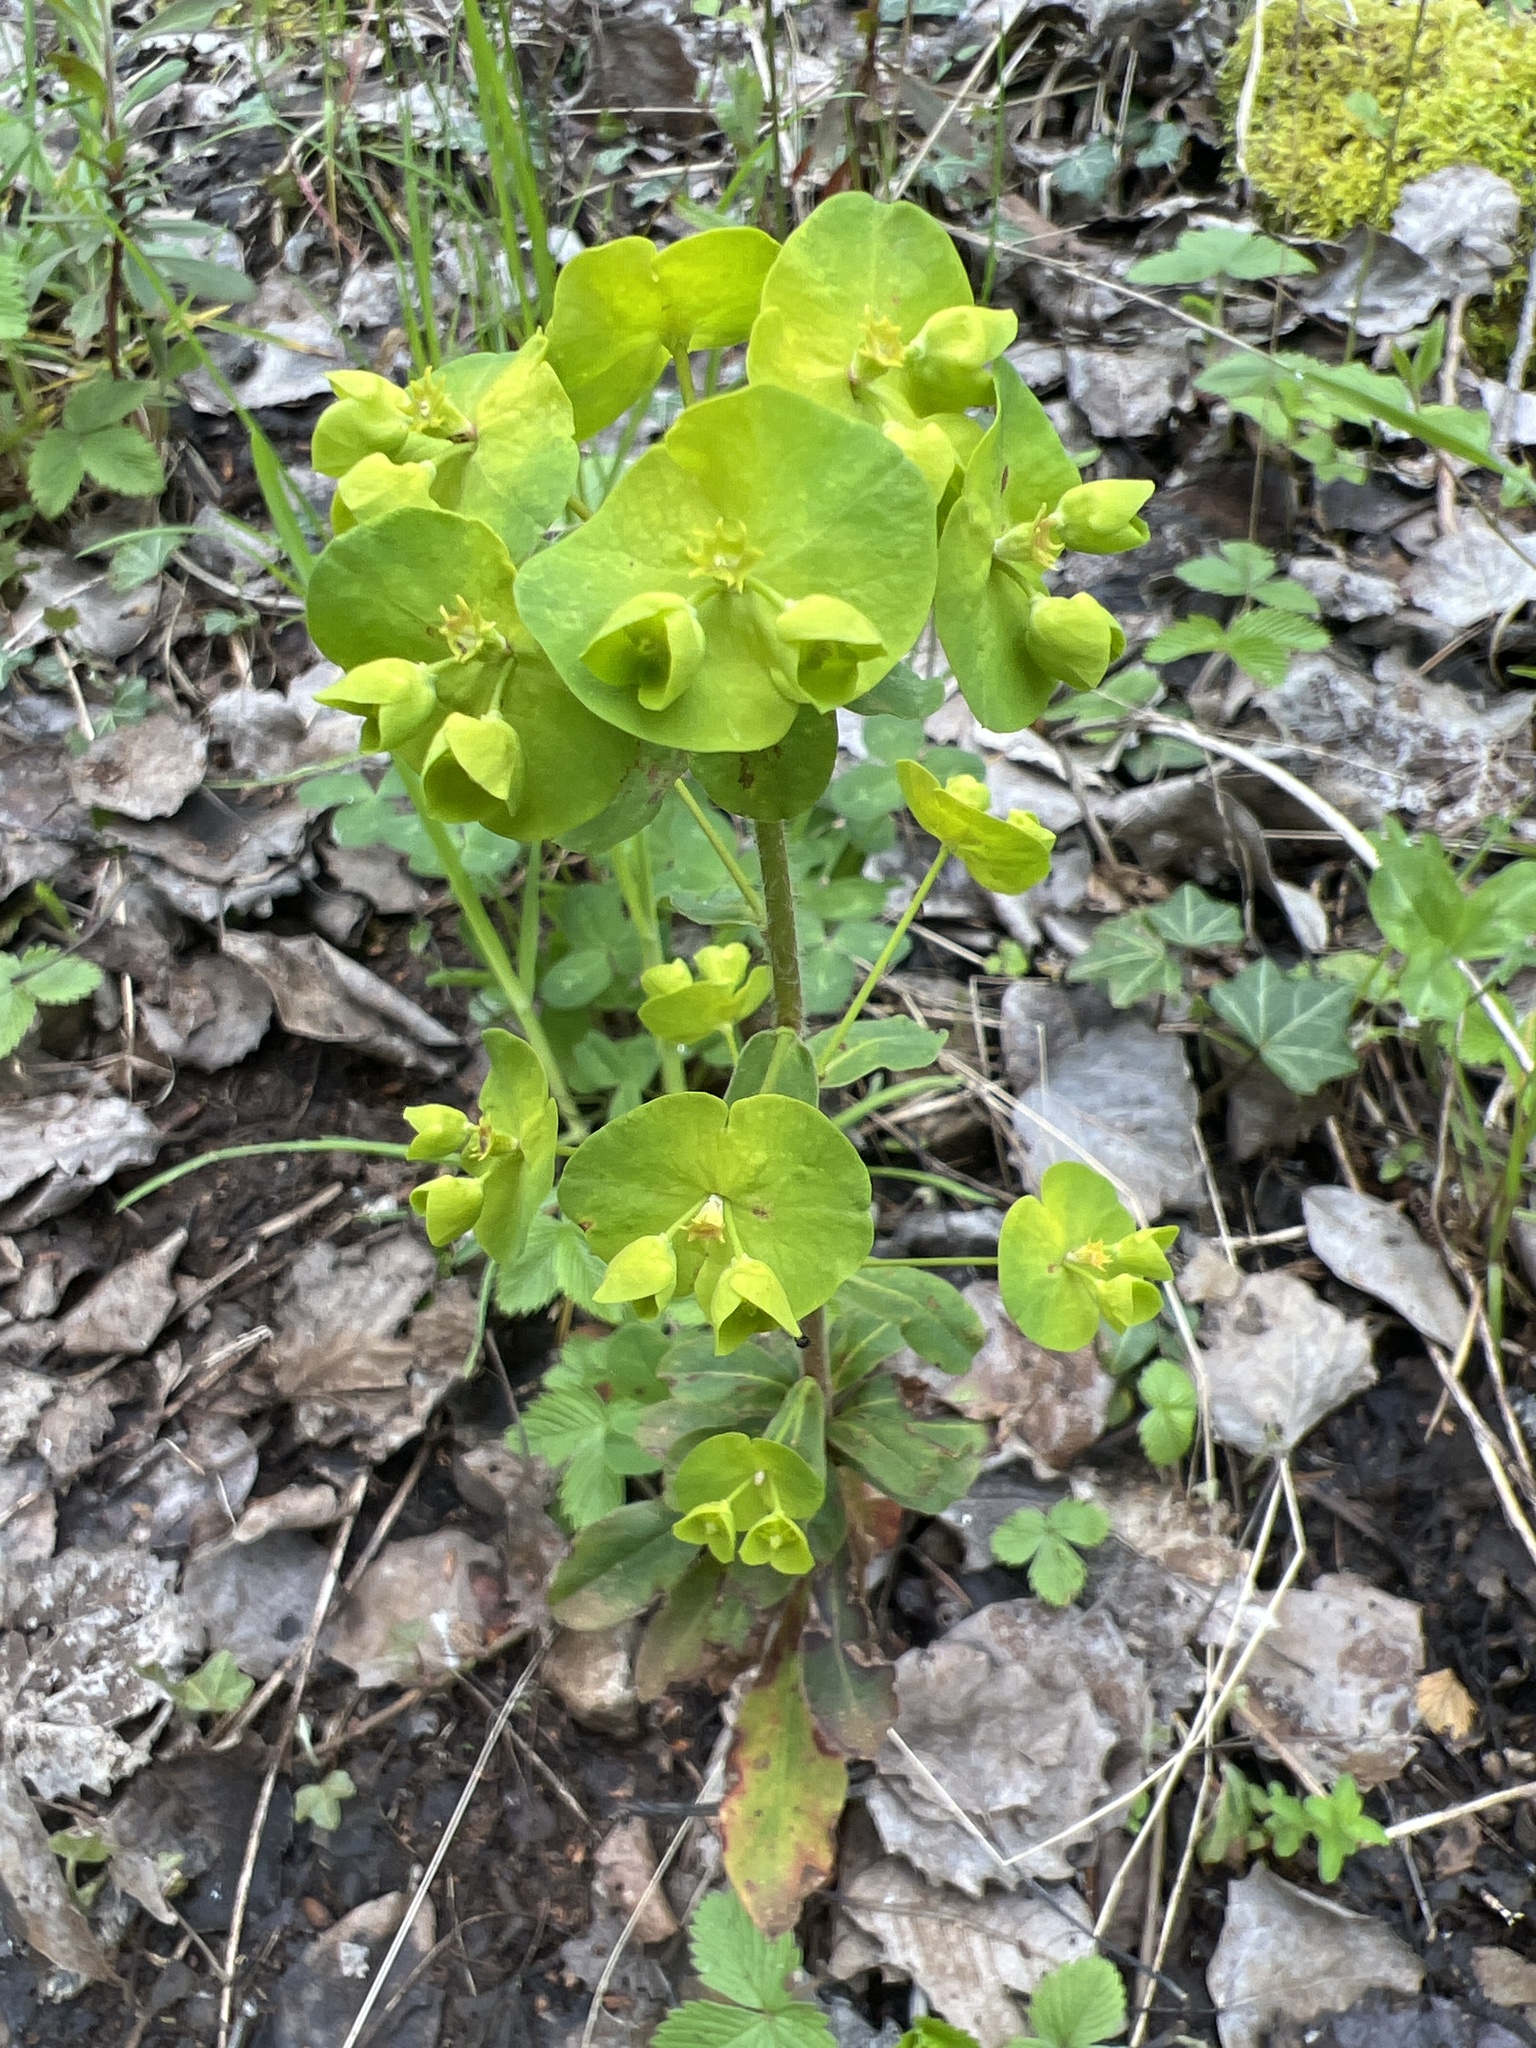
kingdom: Plantae
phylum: Tracheophyta
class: Magnoliopsida
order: Malpighiales
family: Euphorbiaceae
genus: Euphorbia
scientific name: Euphorbia amygdaloides
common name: Wood spurge
